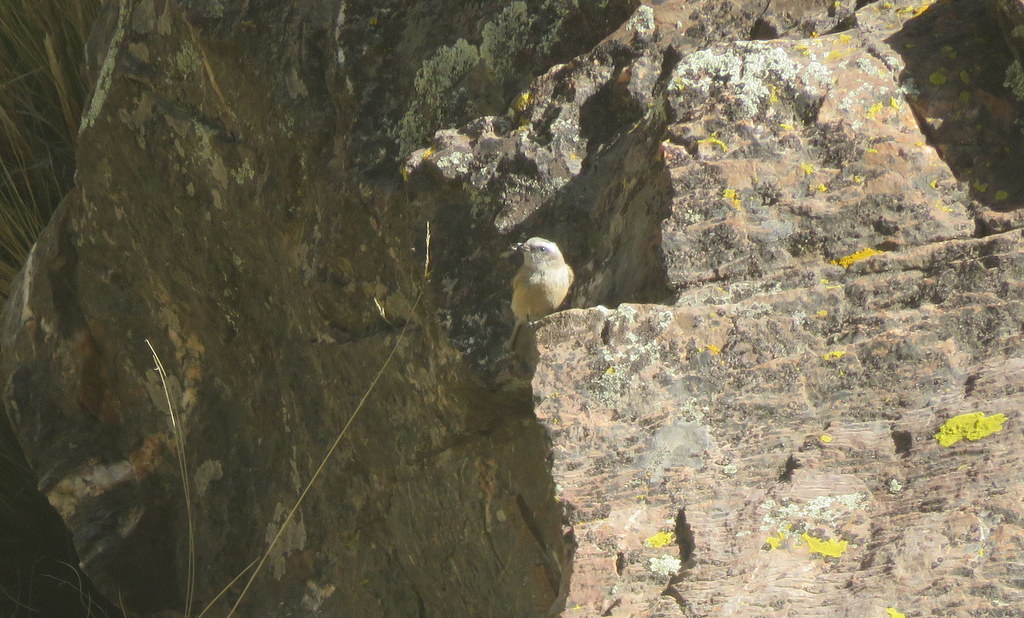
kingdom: Animalia
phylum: Chordata
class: Aves
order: Passeriformes
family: Tyrannidae
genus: Ochthoeca
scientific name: Ochthoeca oenanthoides
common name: D'orbigny's chat-tyrant
